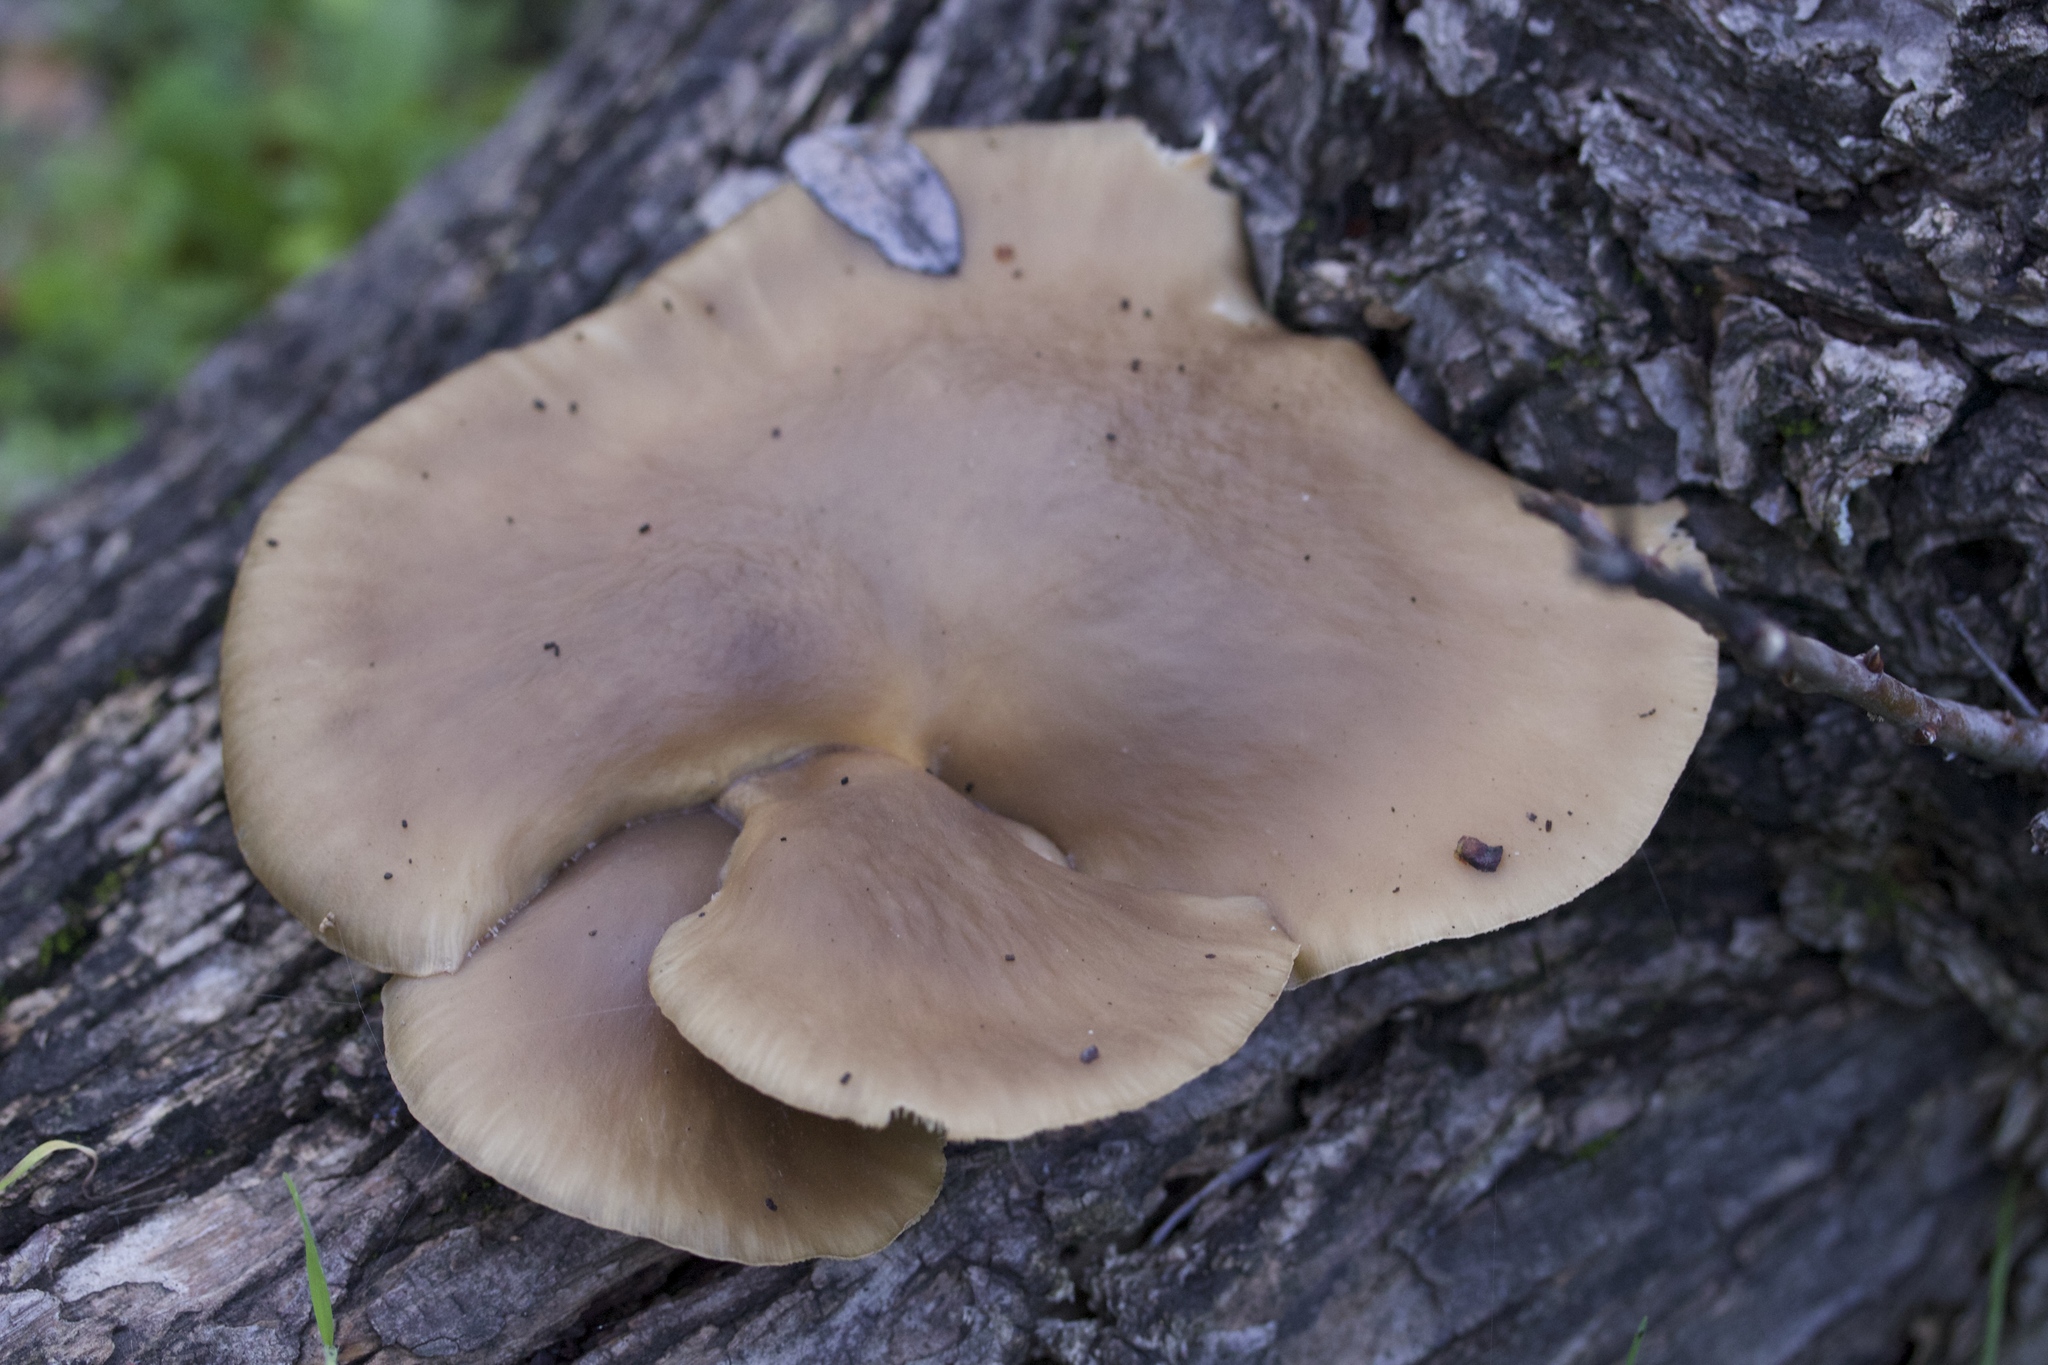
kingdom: Fungi
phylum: Basidiomycota
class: Agaricomycetes
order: Agaricales
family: Pleurotaceae
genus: Pleurotus
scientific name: Pleurotus ostreatus
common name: Oyster mushroom
